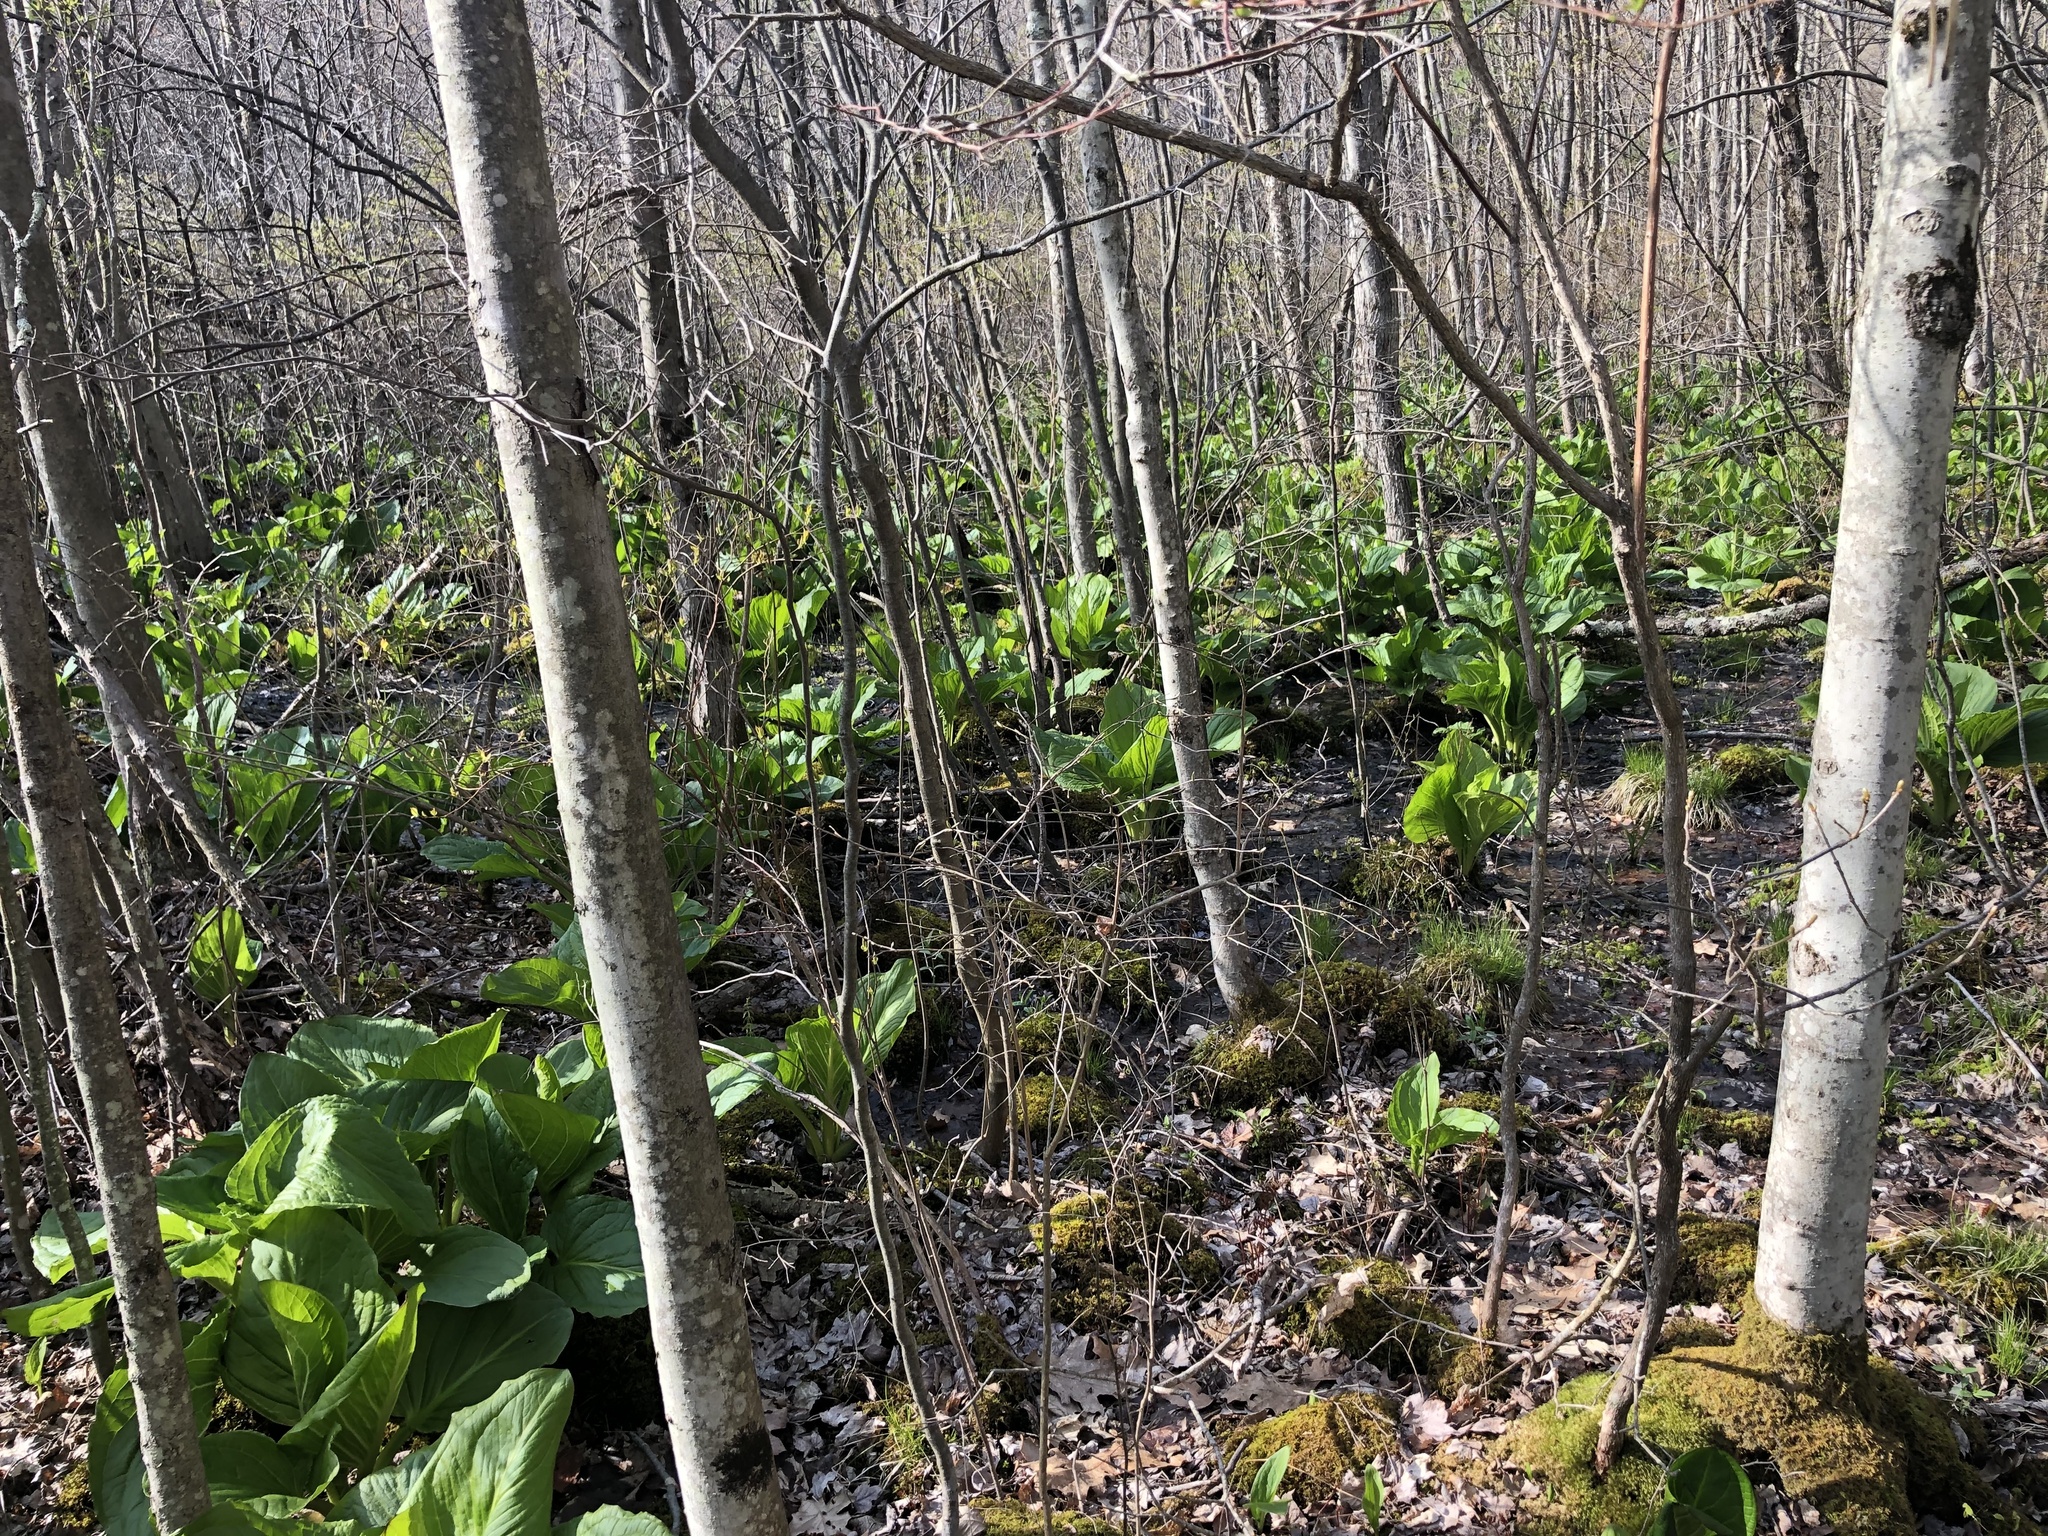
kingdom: Plantae
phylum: Tracheophyta
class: Liliopsida
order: Alismatales
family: Araceae
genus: Symplocarpus
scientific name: Symplocarpus foetidus
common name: Eastern skunk cabbage
